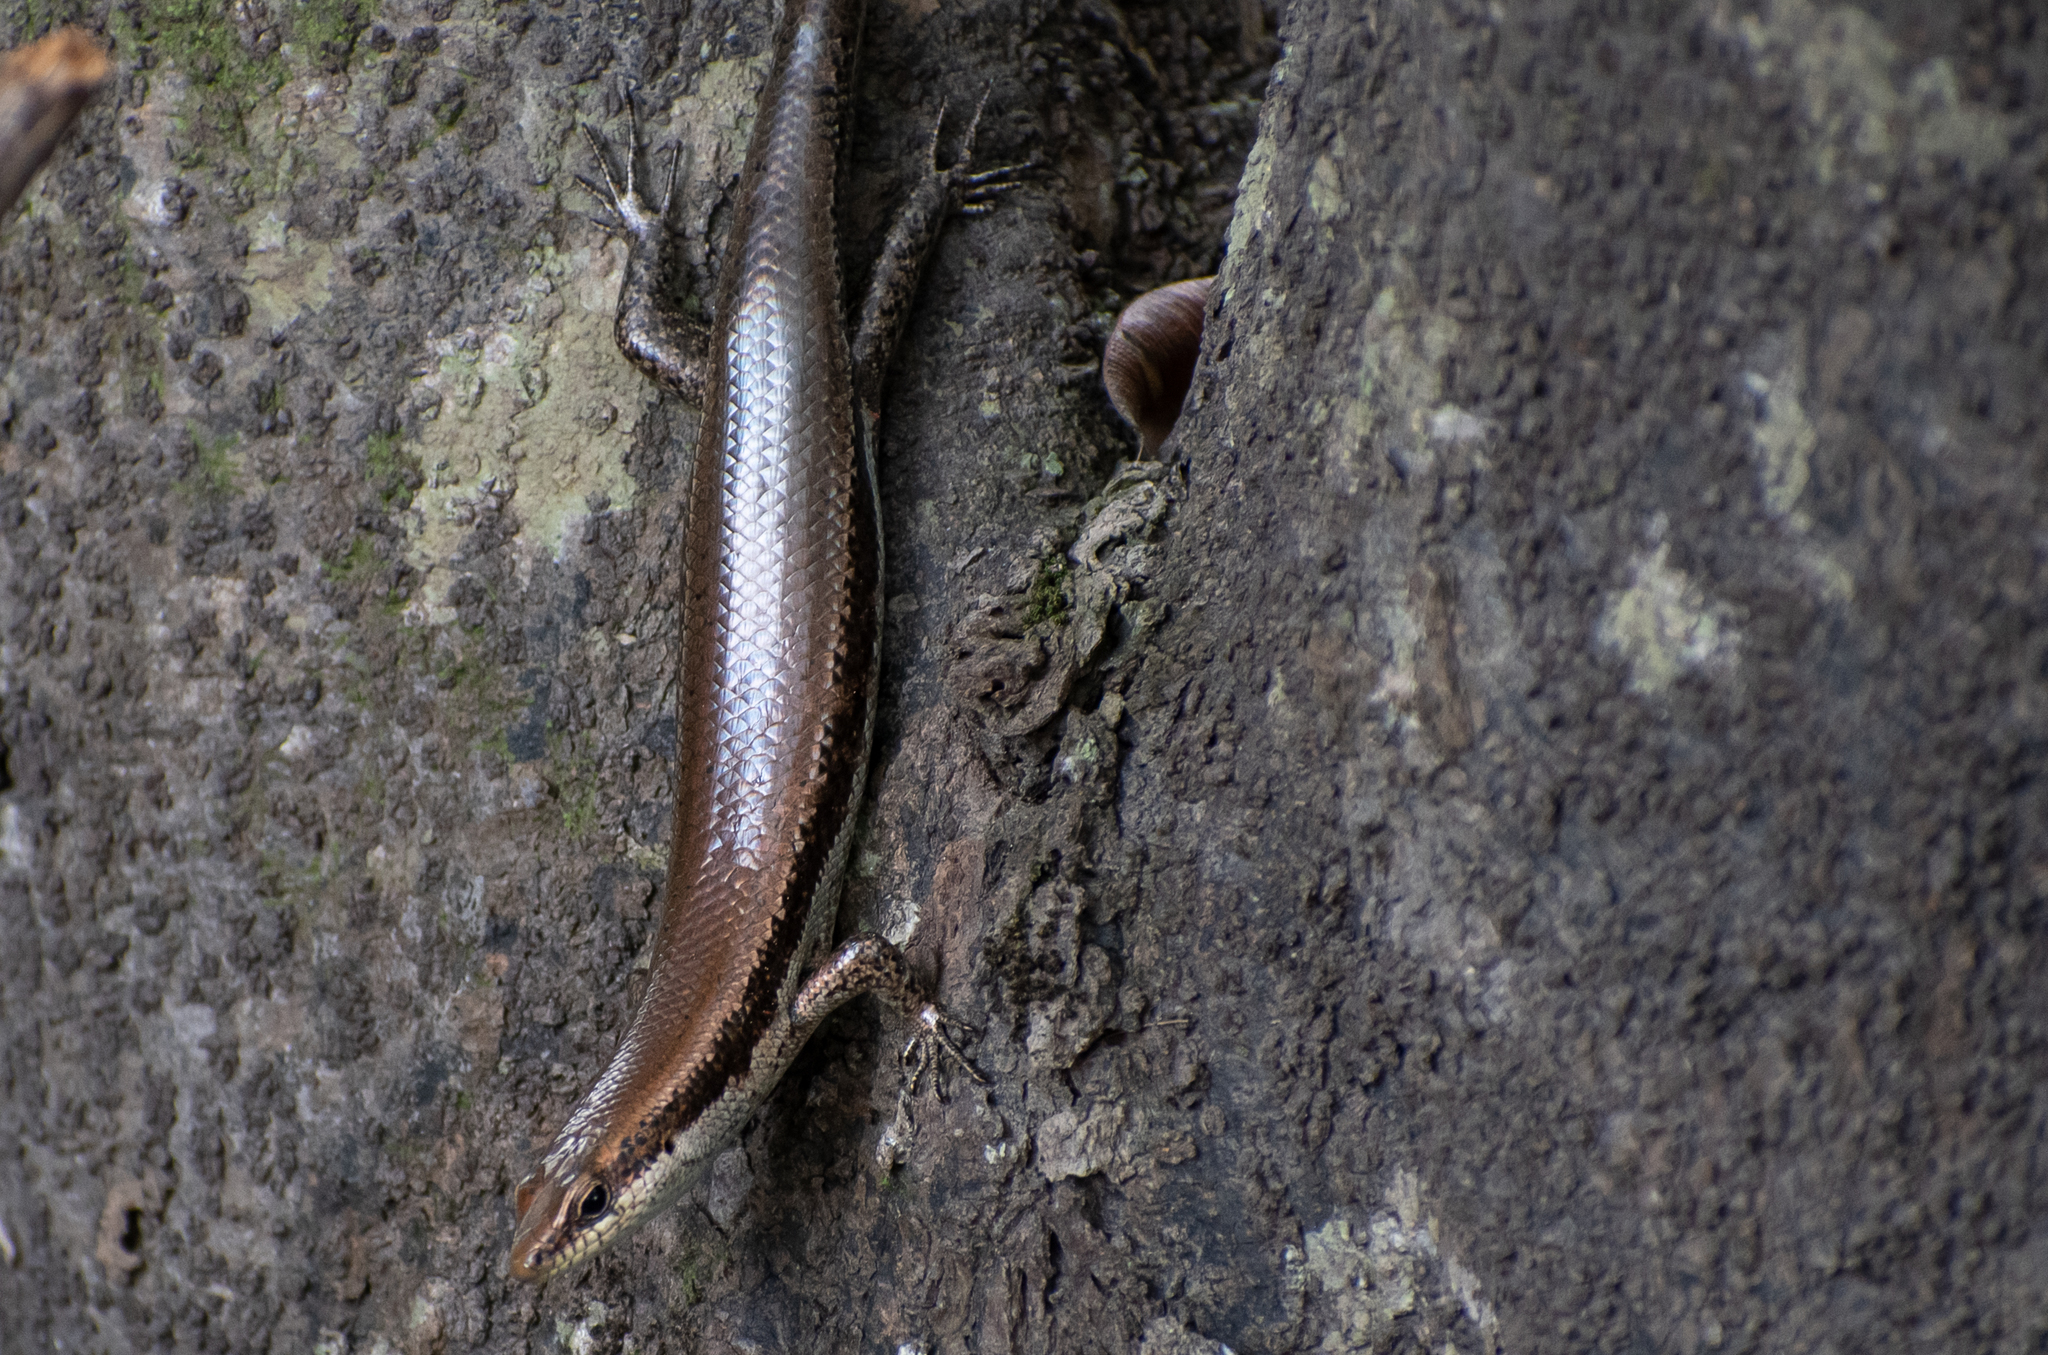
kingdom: Animalia
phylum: Chordata
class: Squamata
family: Scincidae
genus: Copeoglossum
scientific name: Copeoglossum nigropunctatum
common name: Black-spotted skink
